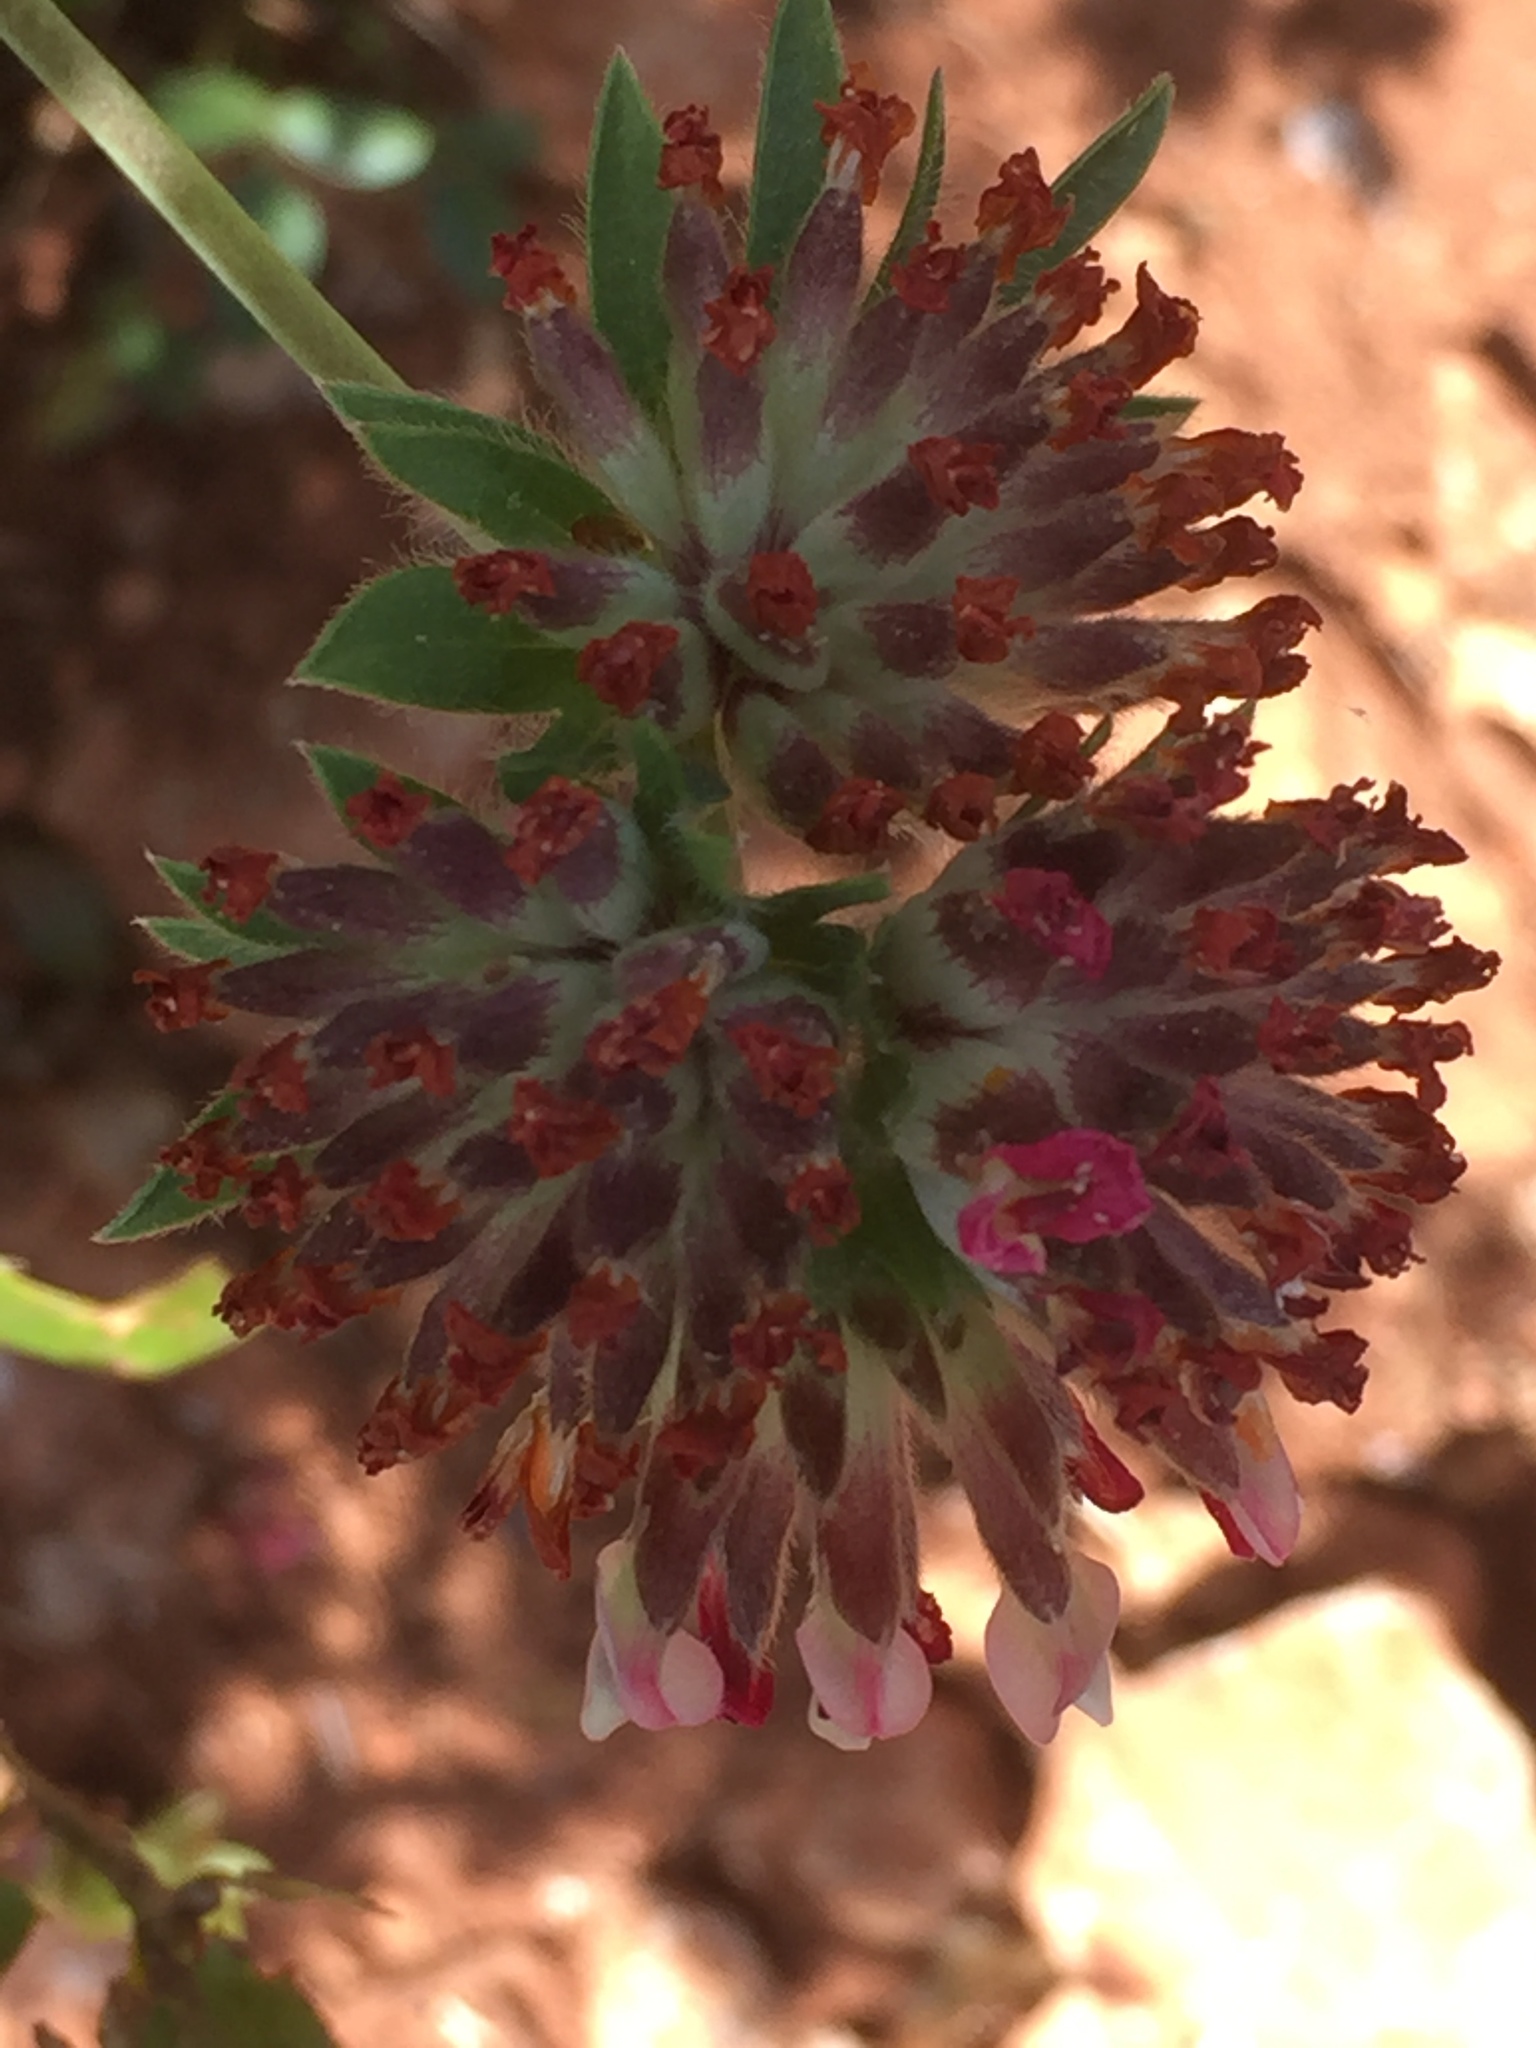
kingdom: Plantae
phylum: Tracheophyta
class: Magnoliopsida
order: Fabales
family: Fabaceae
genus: Anthyllis
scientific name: Anthyllis vulneraria
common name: Kidney vetch
